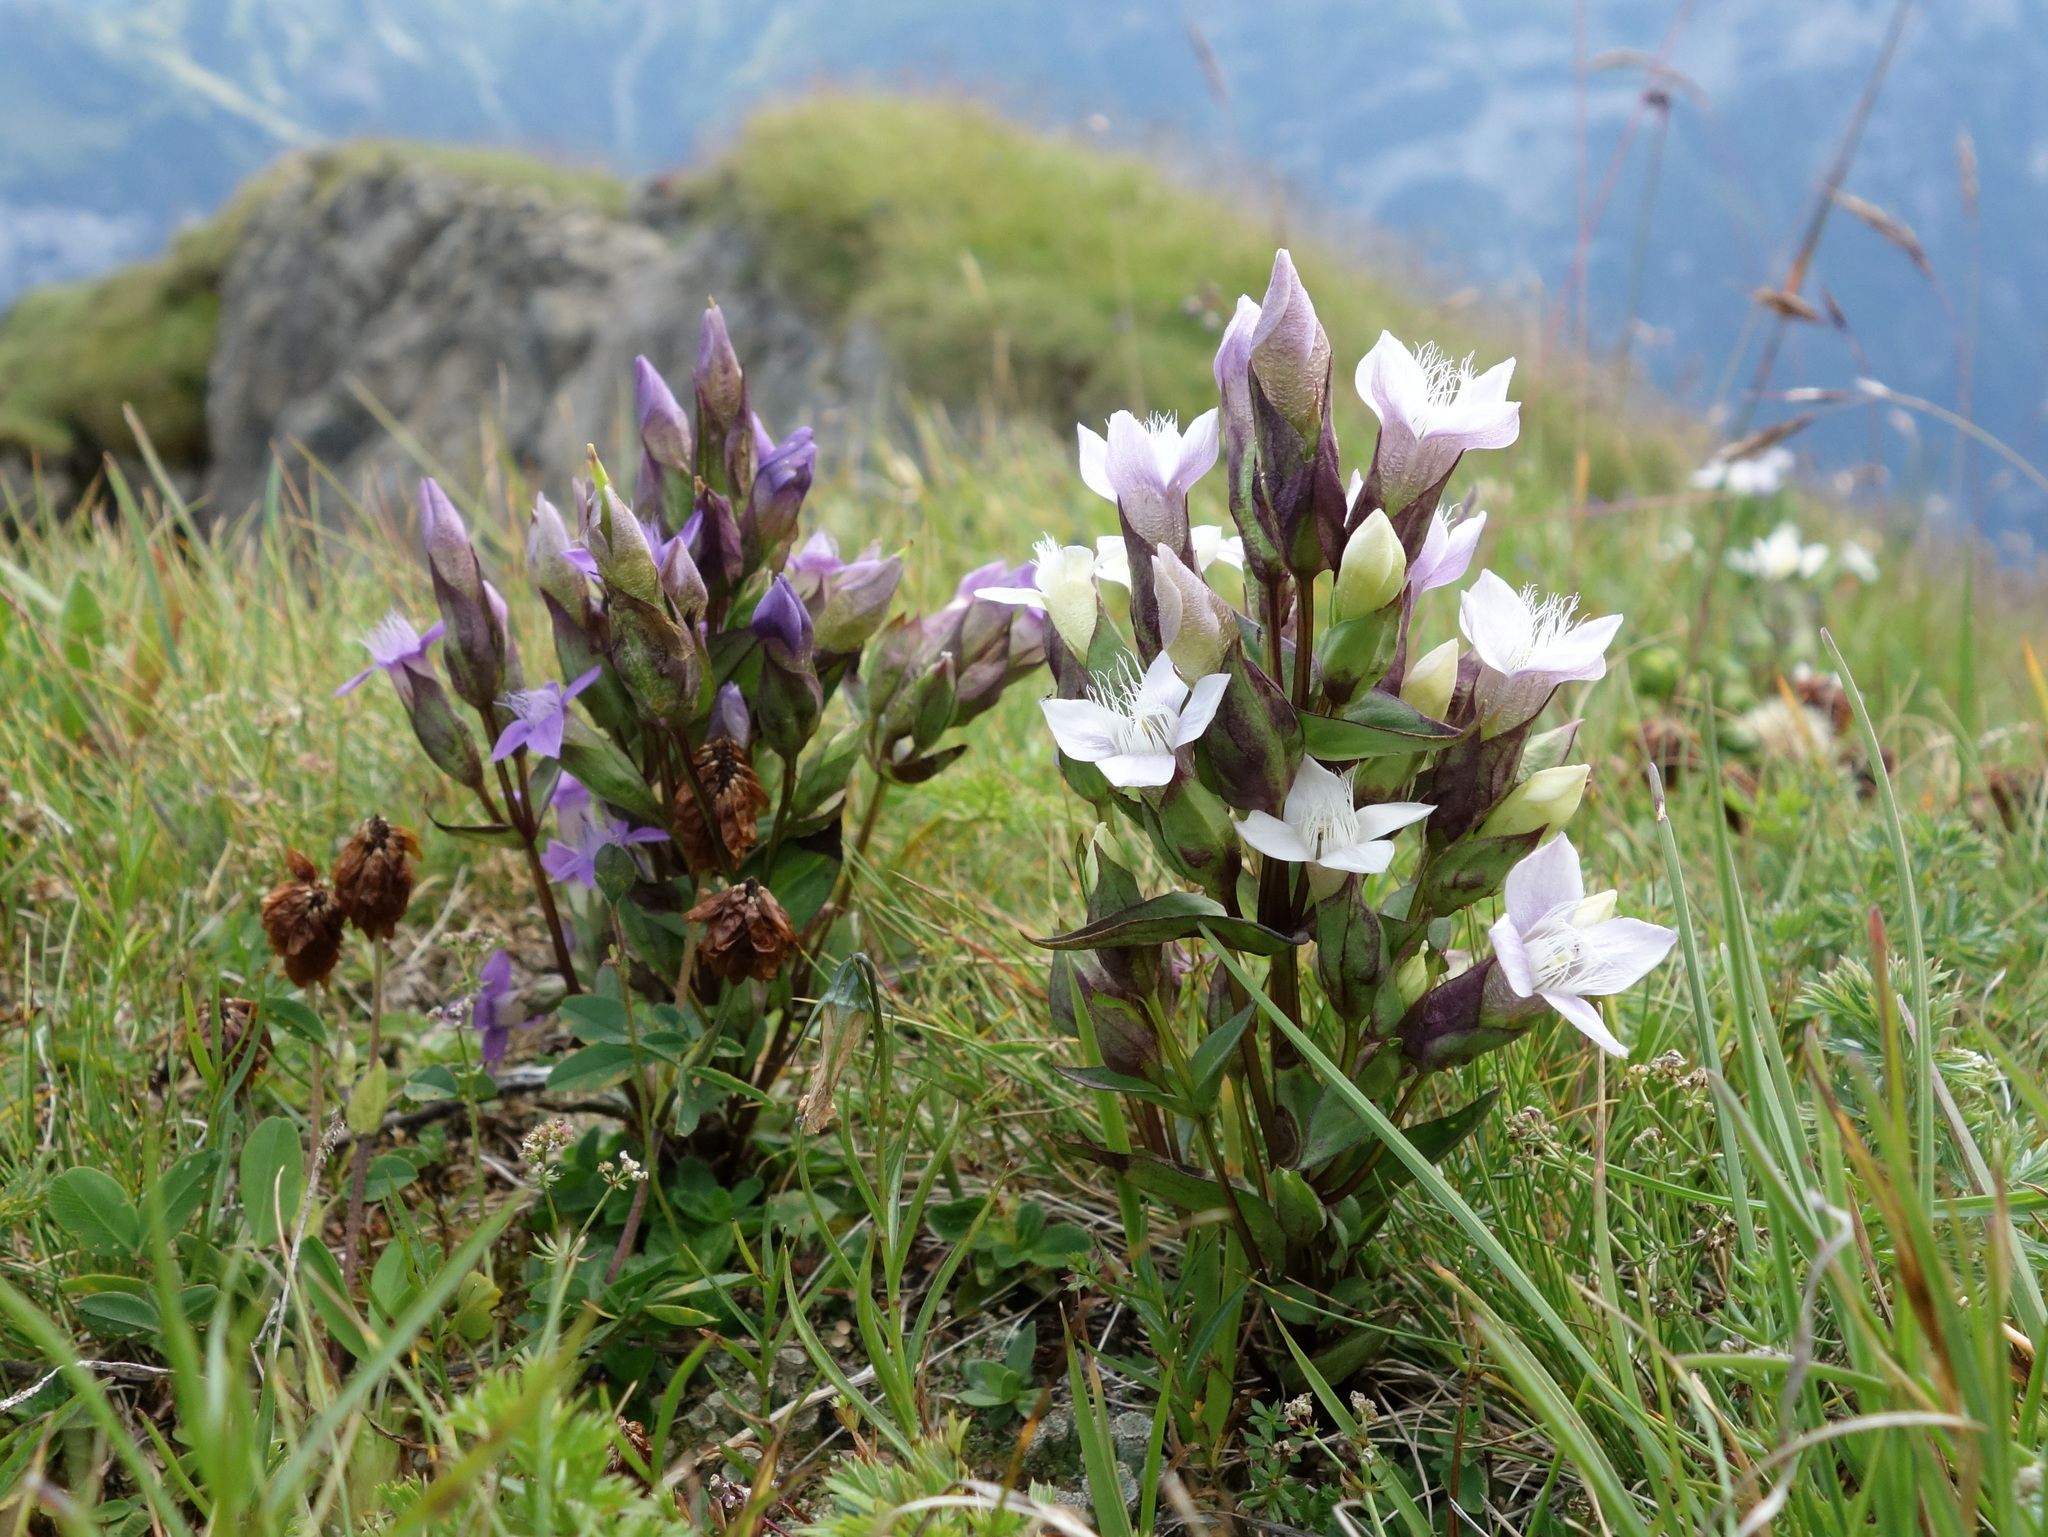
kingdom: Plantae
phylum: Tracheophyta
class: Magnoliopsida
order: Gentianales
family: Gentianaceae
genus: Gentianella
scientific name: Gentianella campestris
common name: Field gentian
